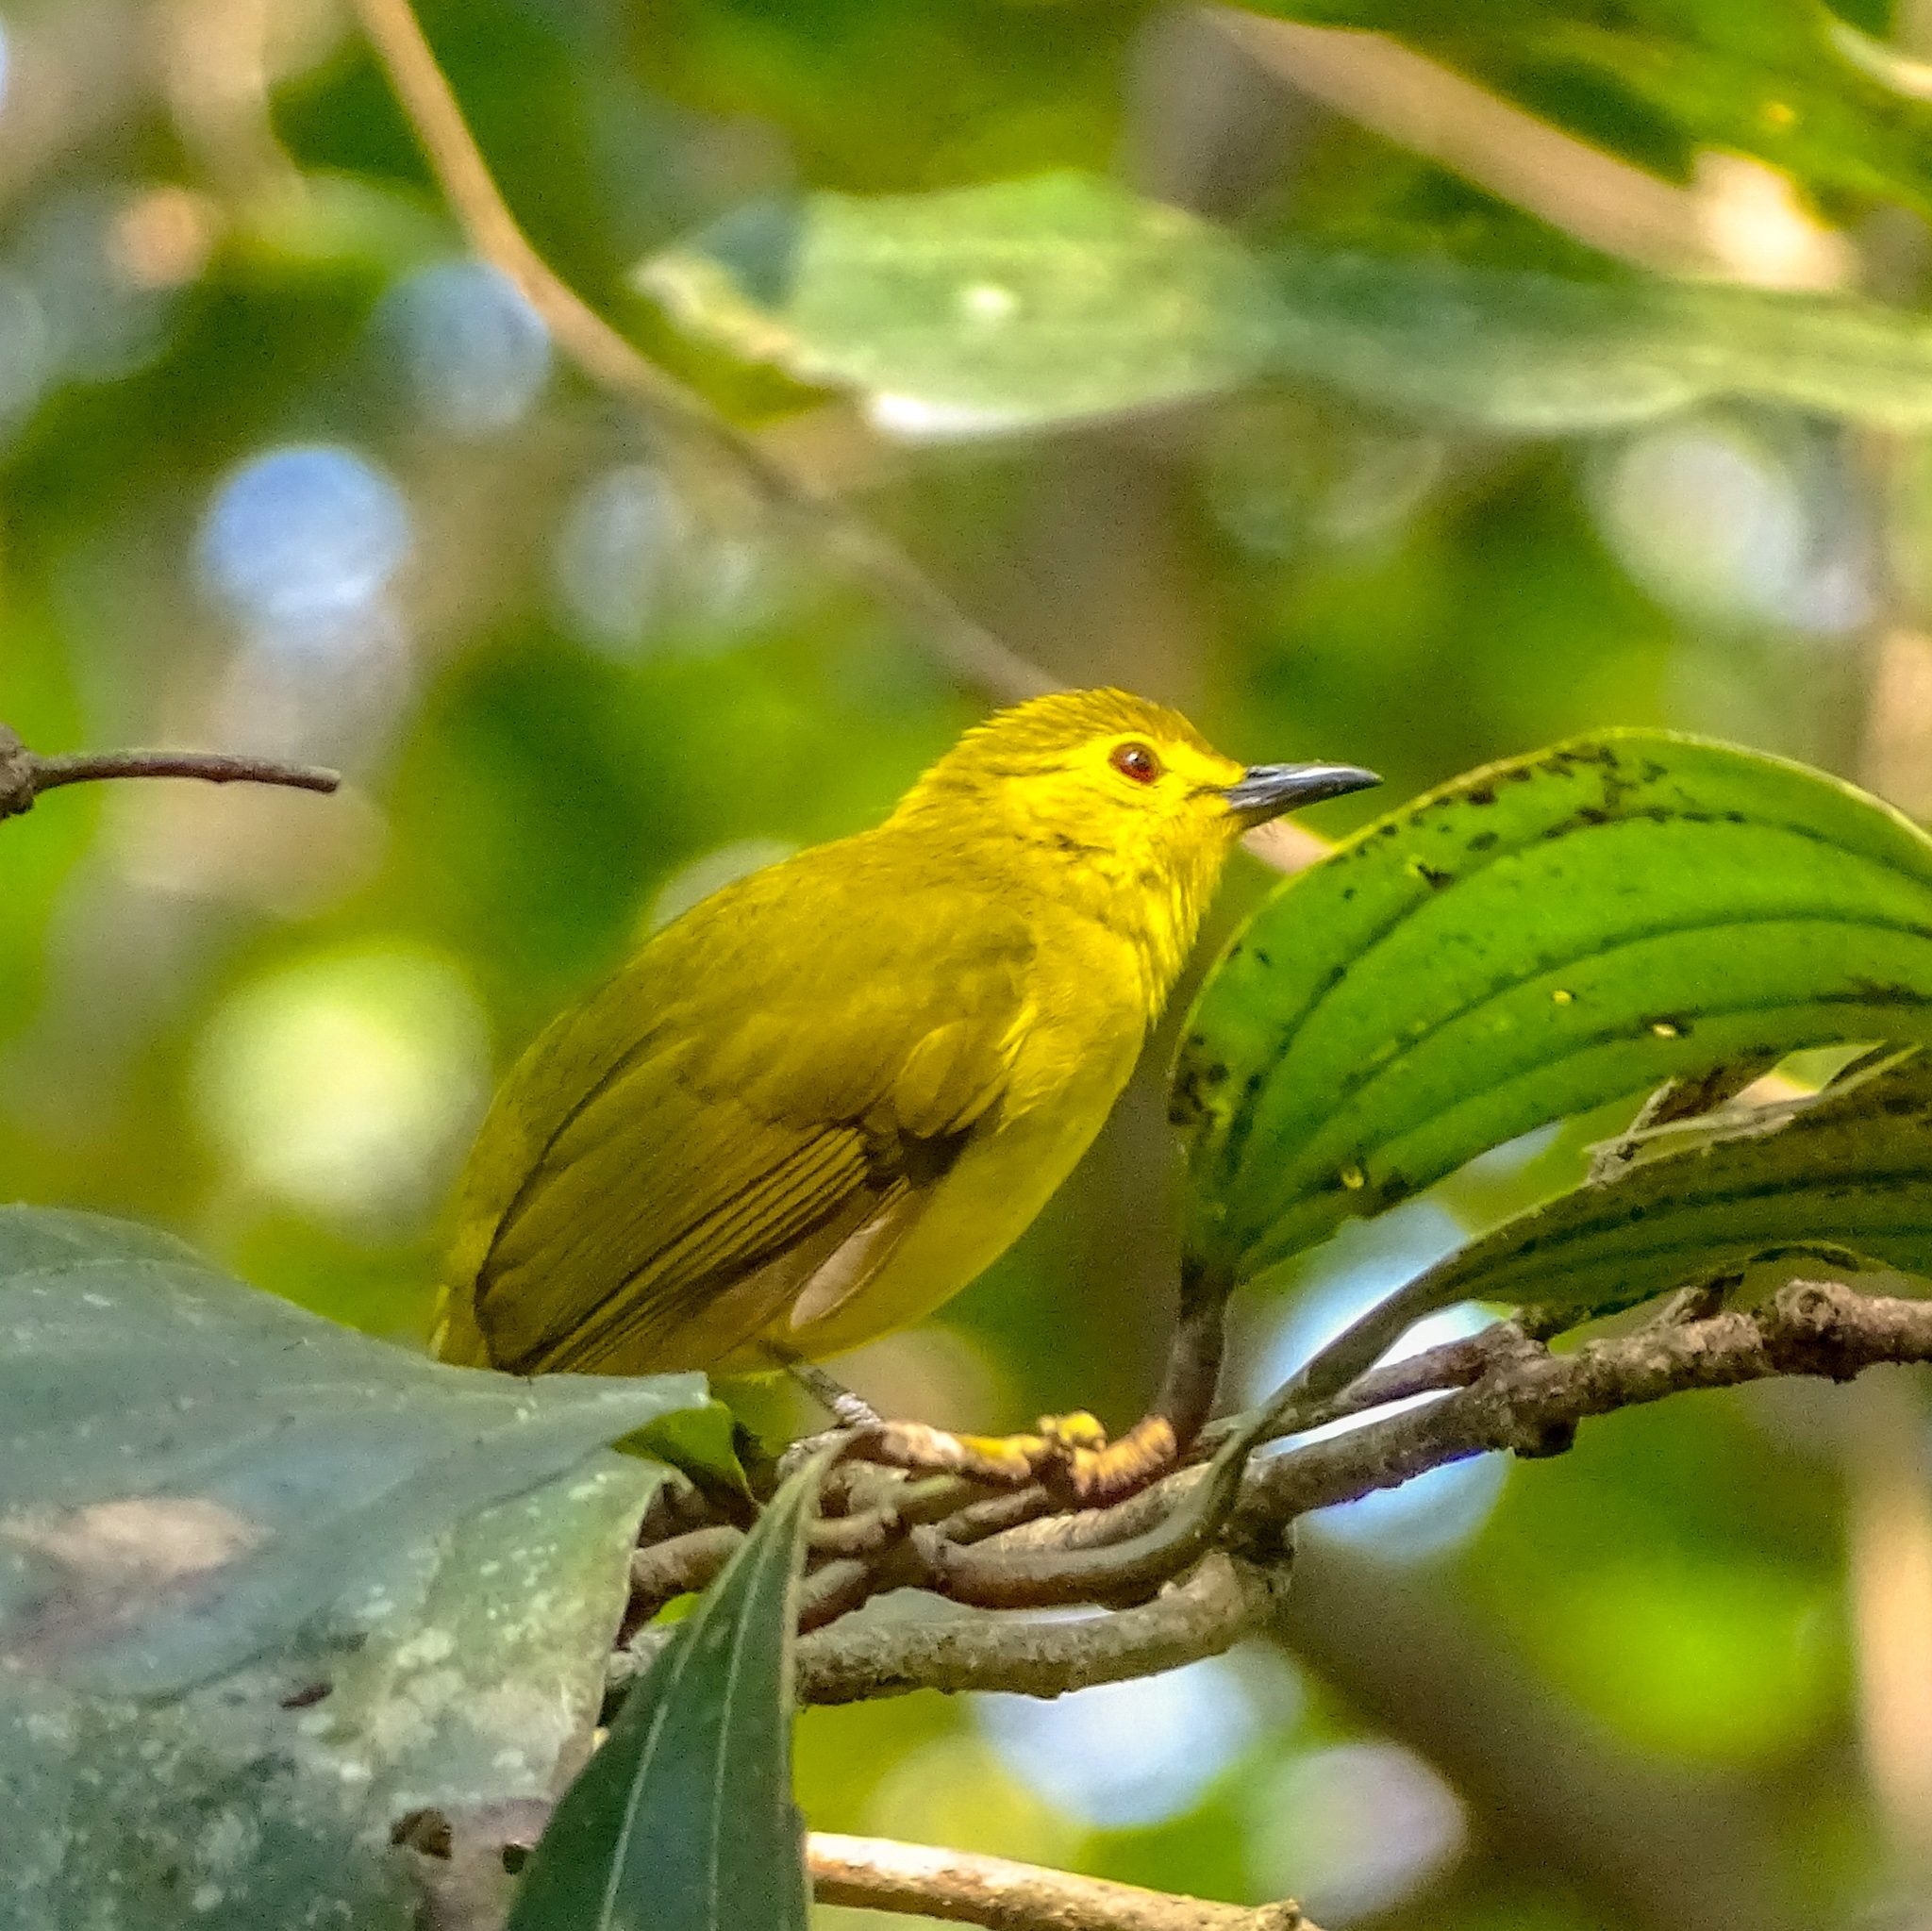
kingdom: Animalia
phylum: Chordata
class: Aves
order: Passeriformes
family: Pycnonotidae
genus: Acritillas
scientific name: Acritillas indica
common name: Yellow-browed bulbul
